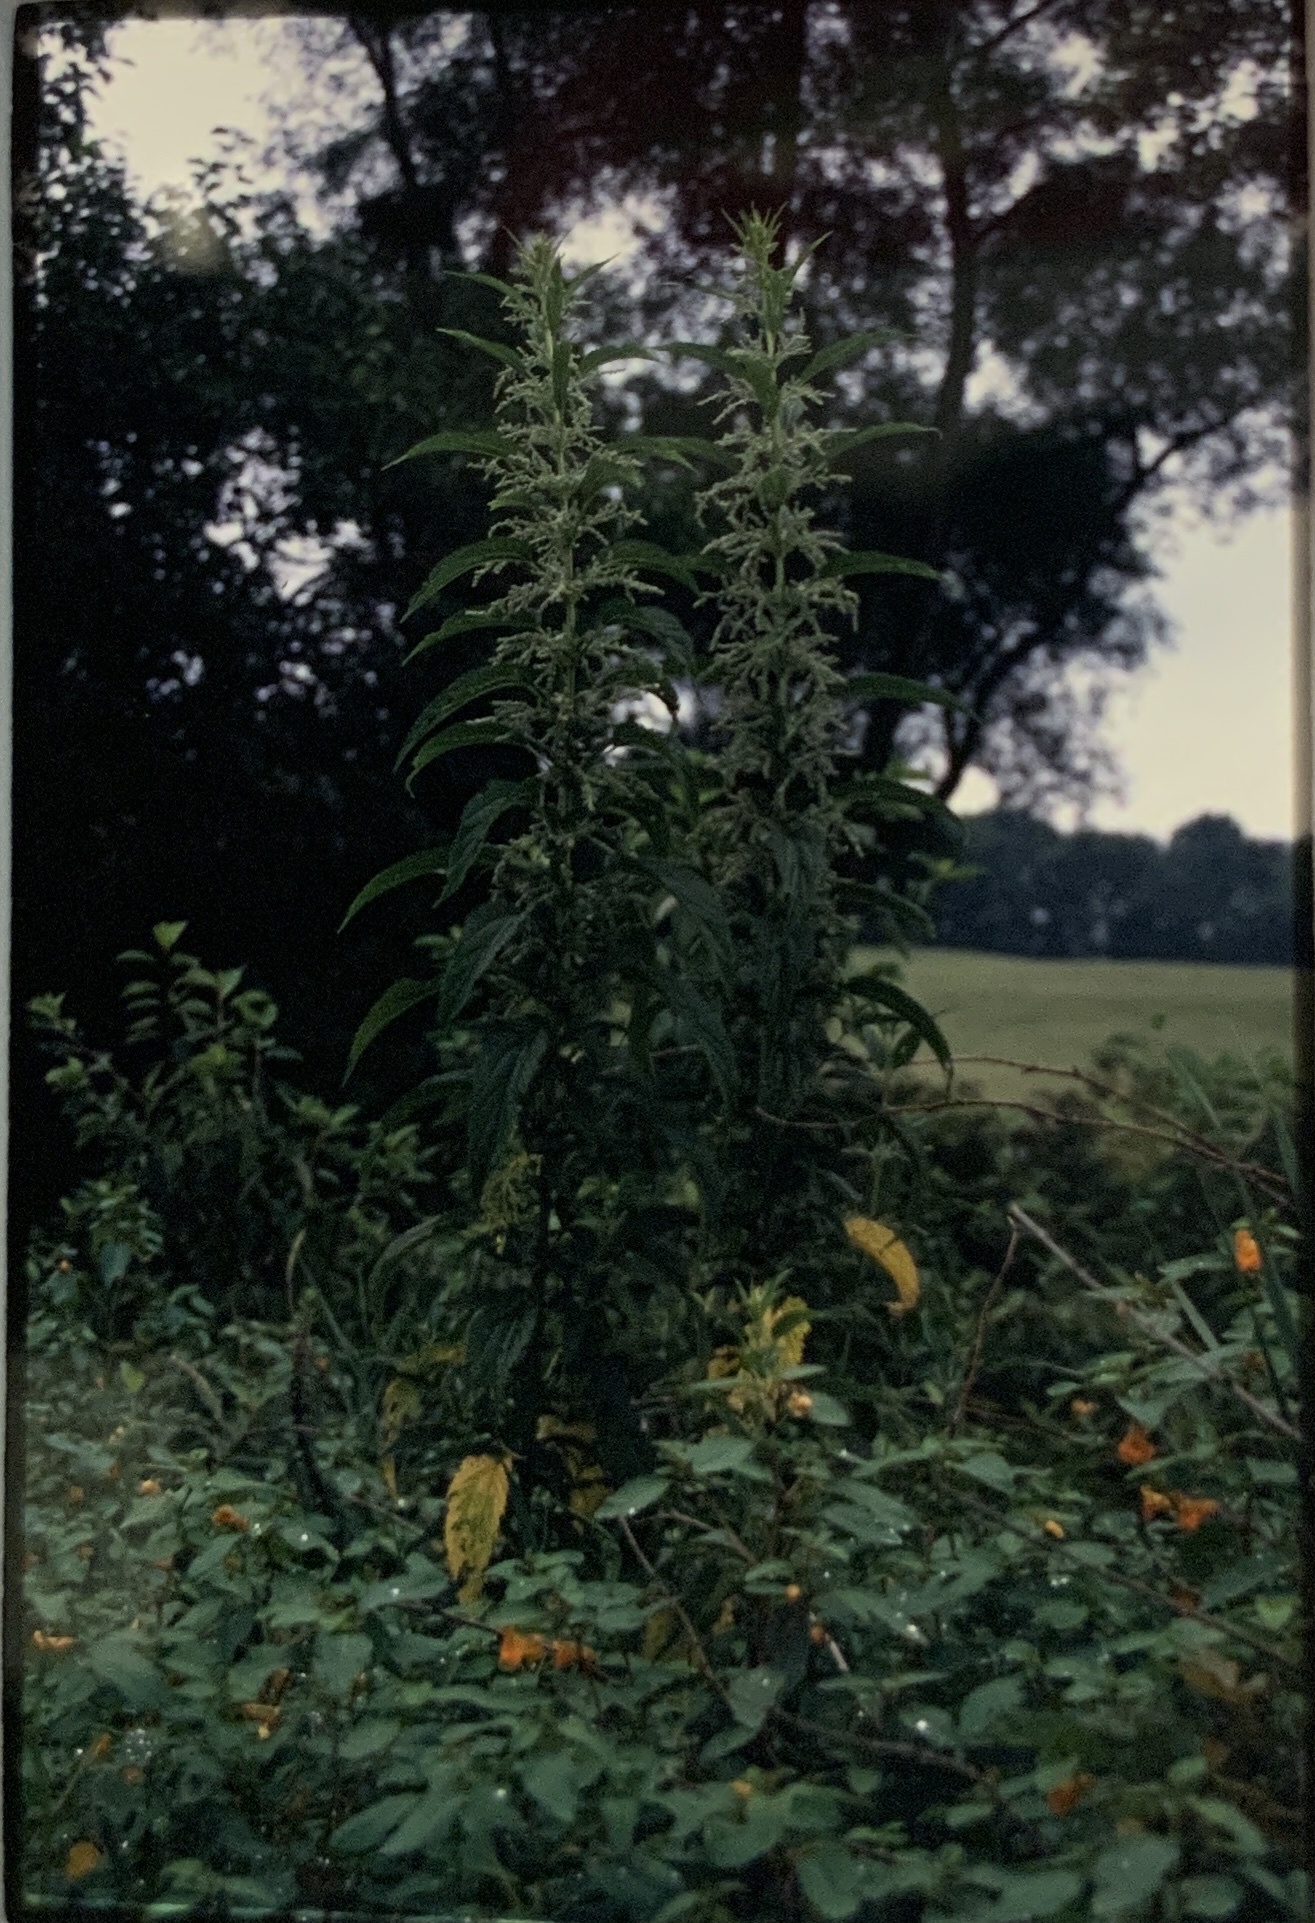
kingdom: Plantae
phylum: Tracheophyta
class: Magnoliopsida
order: Rosales
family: Urticaceae
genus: Urtica
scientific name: Urtica dioica
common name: Common nettle
